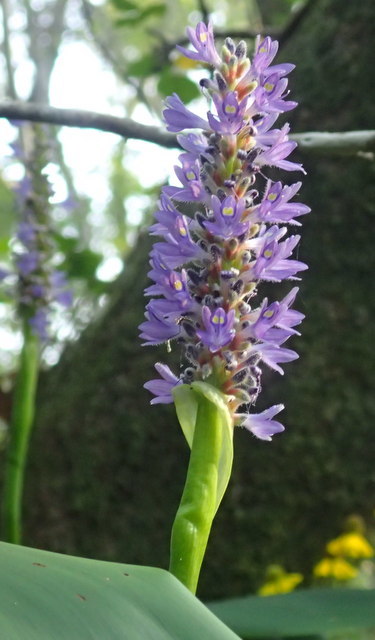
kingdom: Plantae
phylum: Tracheophyta
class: Liliopsida
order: Commelinales
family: Pontederiaceae
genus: Pontederia
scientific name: Pontederia cordata
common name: Pickerelweed
